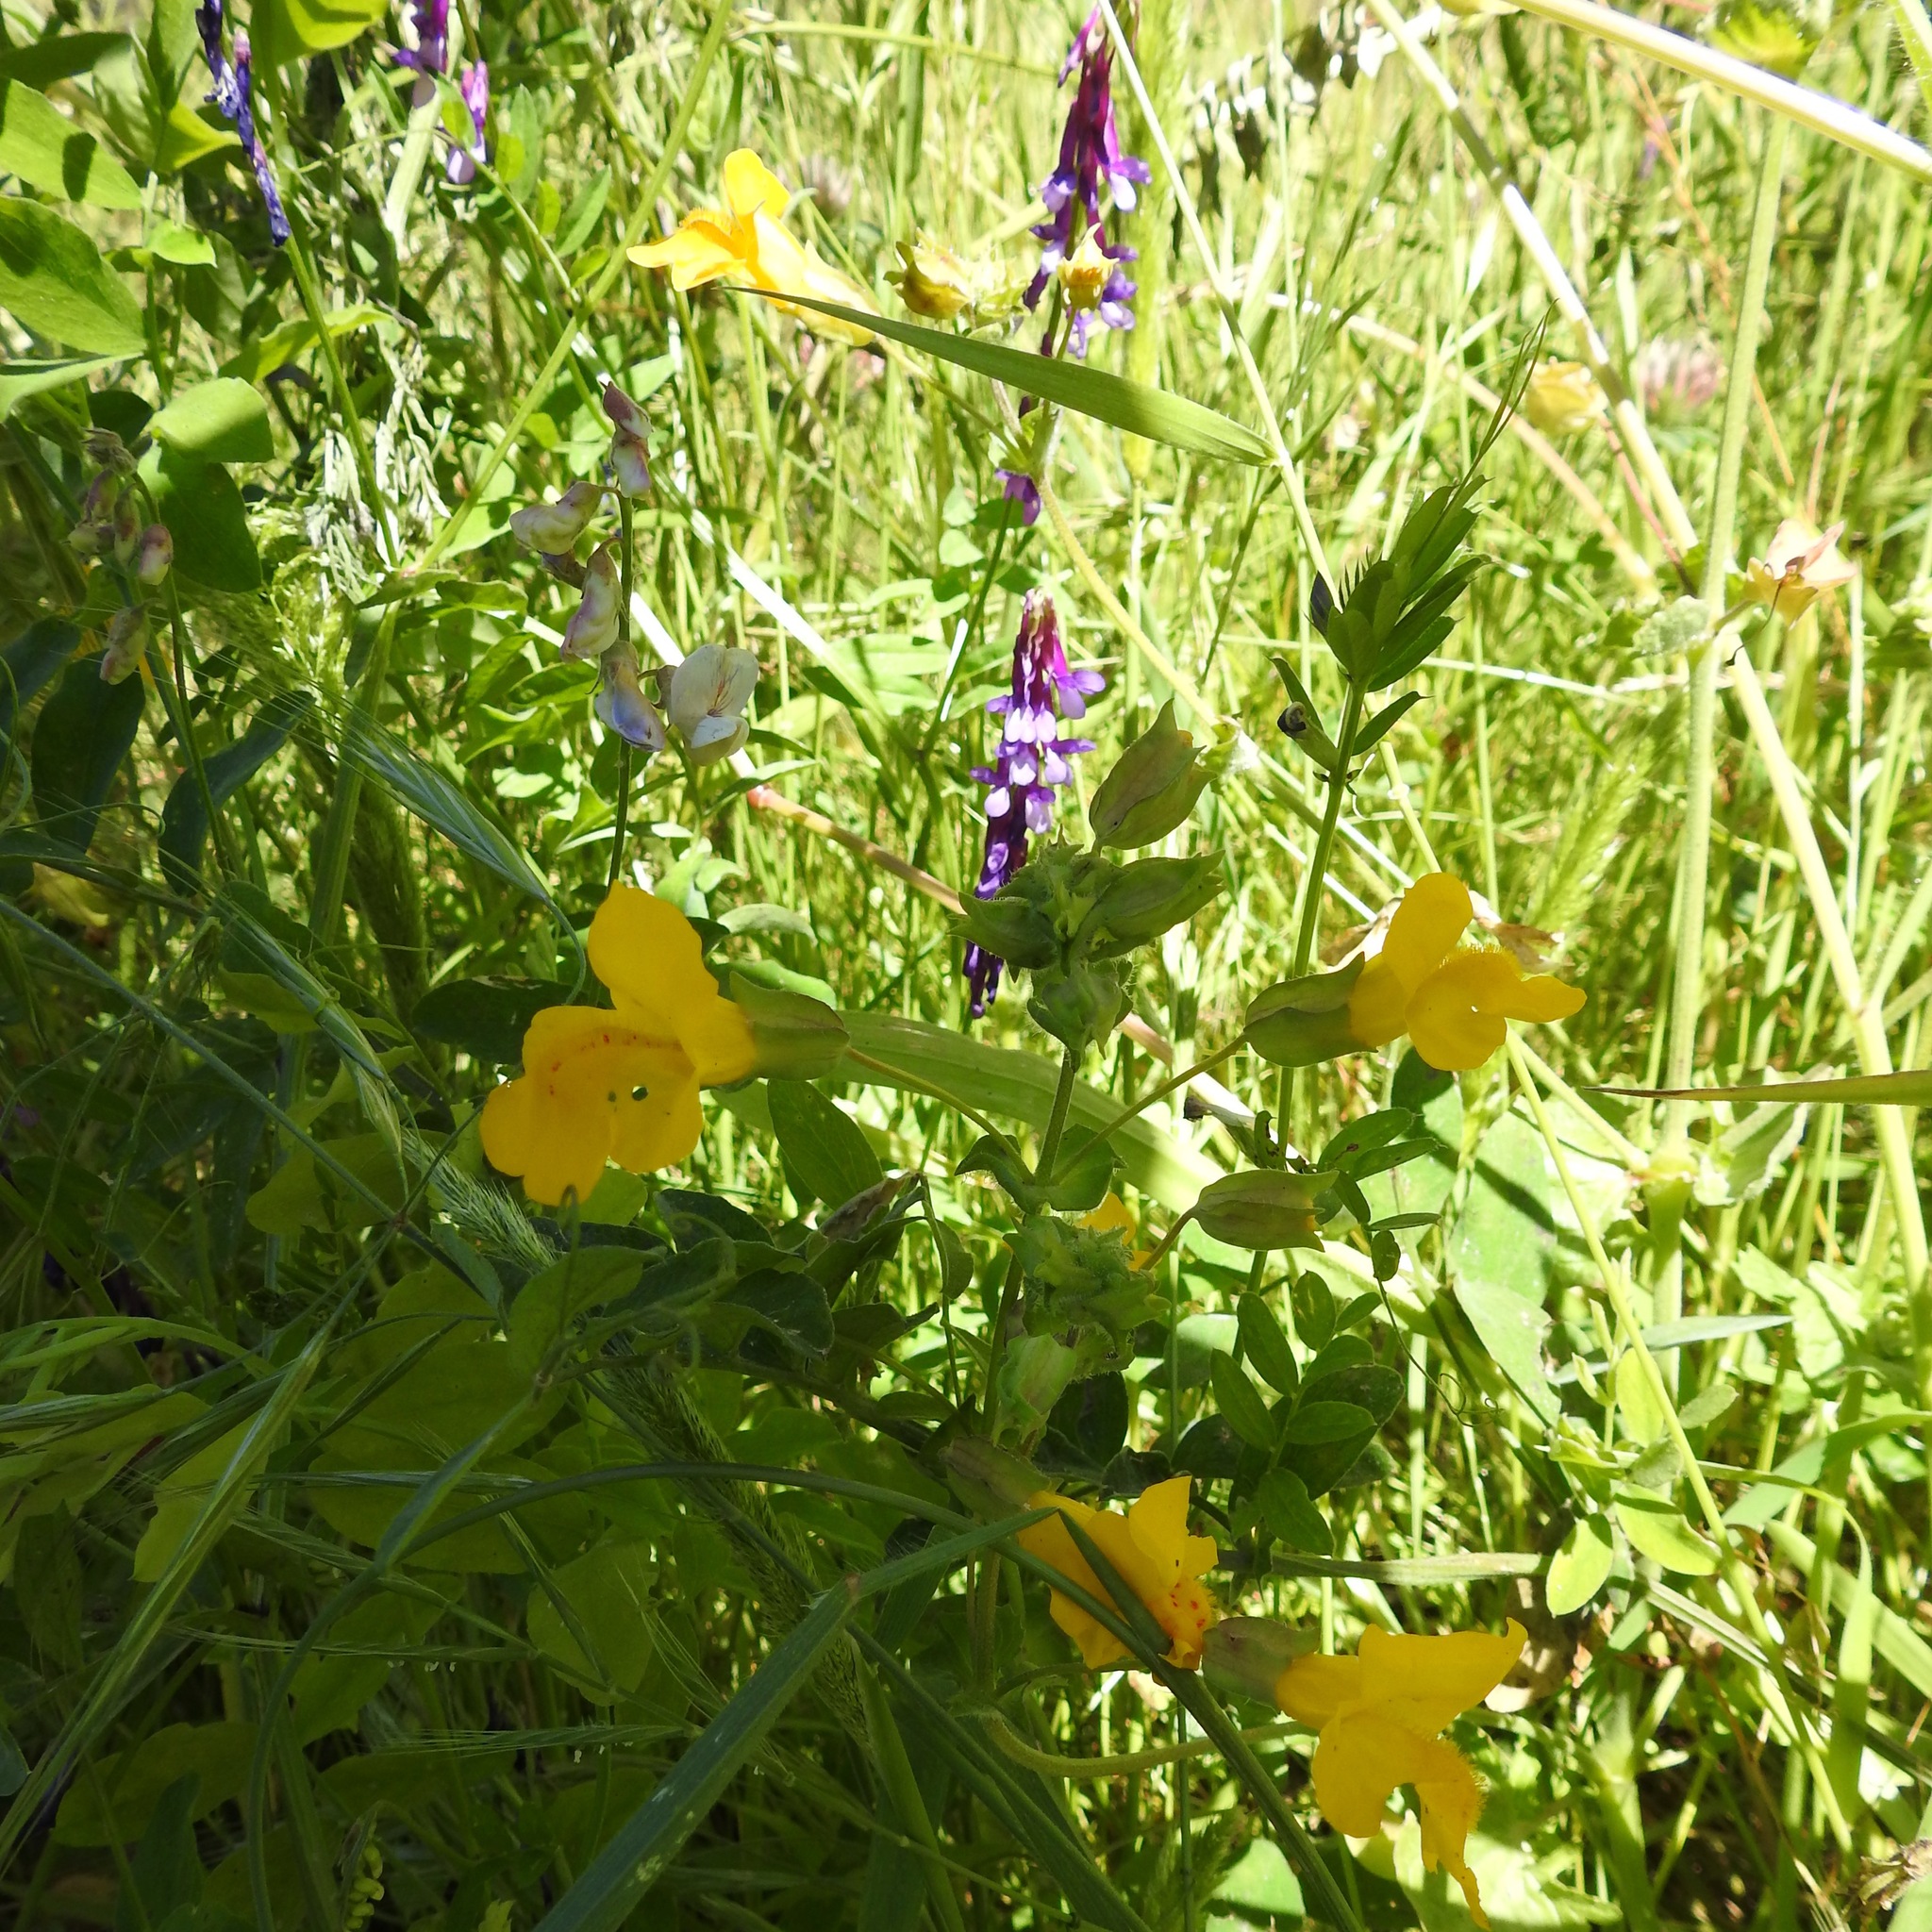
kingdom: Plantae
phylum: Tracheophyta
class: Magnoliopsida
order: Fabales
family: Fabaceae
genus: Vicia
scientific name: Vicia villosa
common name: Fodder vetch
